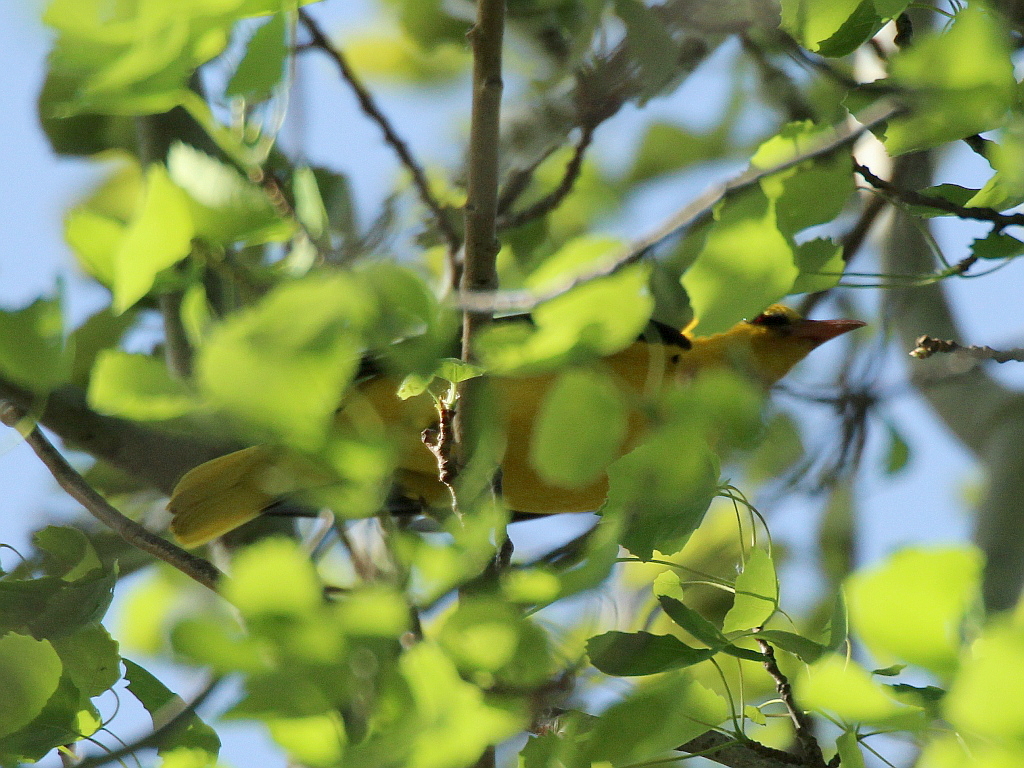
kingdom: Animalia
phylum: Chordata
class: Aves
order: Passeriformes
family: Oriolidae
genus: Oriolus
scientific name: Oriolus oriolus
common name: Eurasian golden oriole
